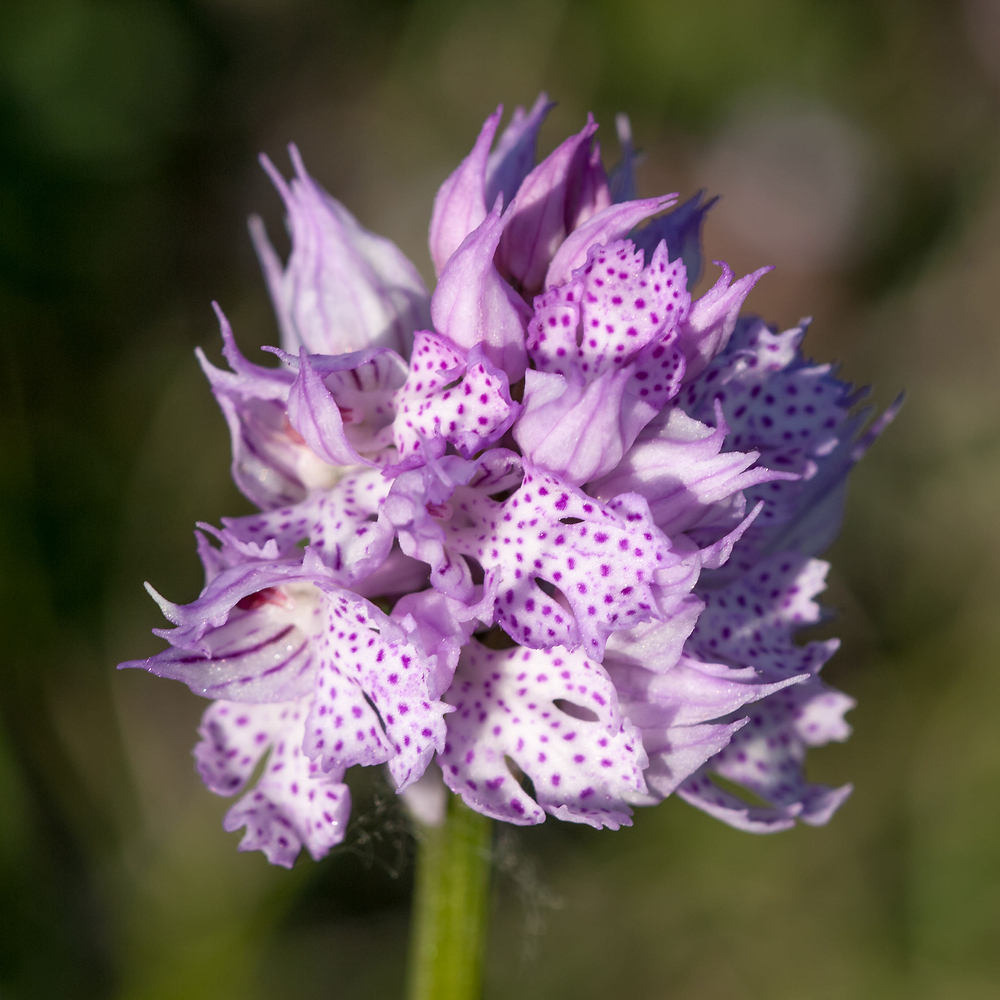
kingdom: Plantae
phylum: Tracheophyta
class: Liliopsida
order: Asparagales
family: Orchidaceae
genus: Neotinea
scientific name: Neotinea tridentata
